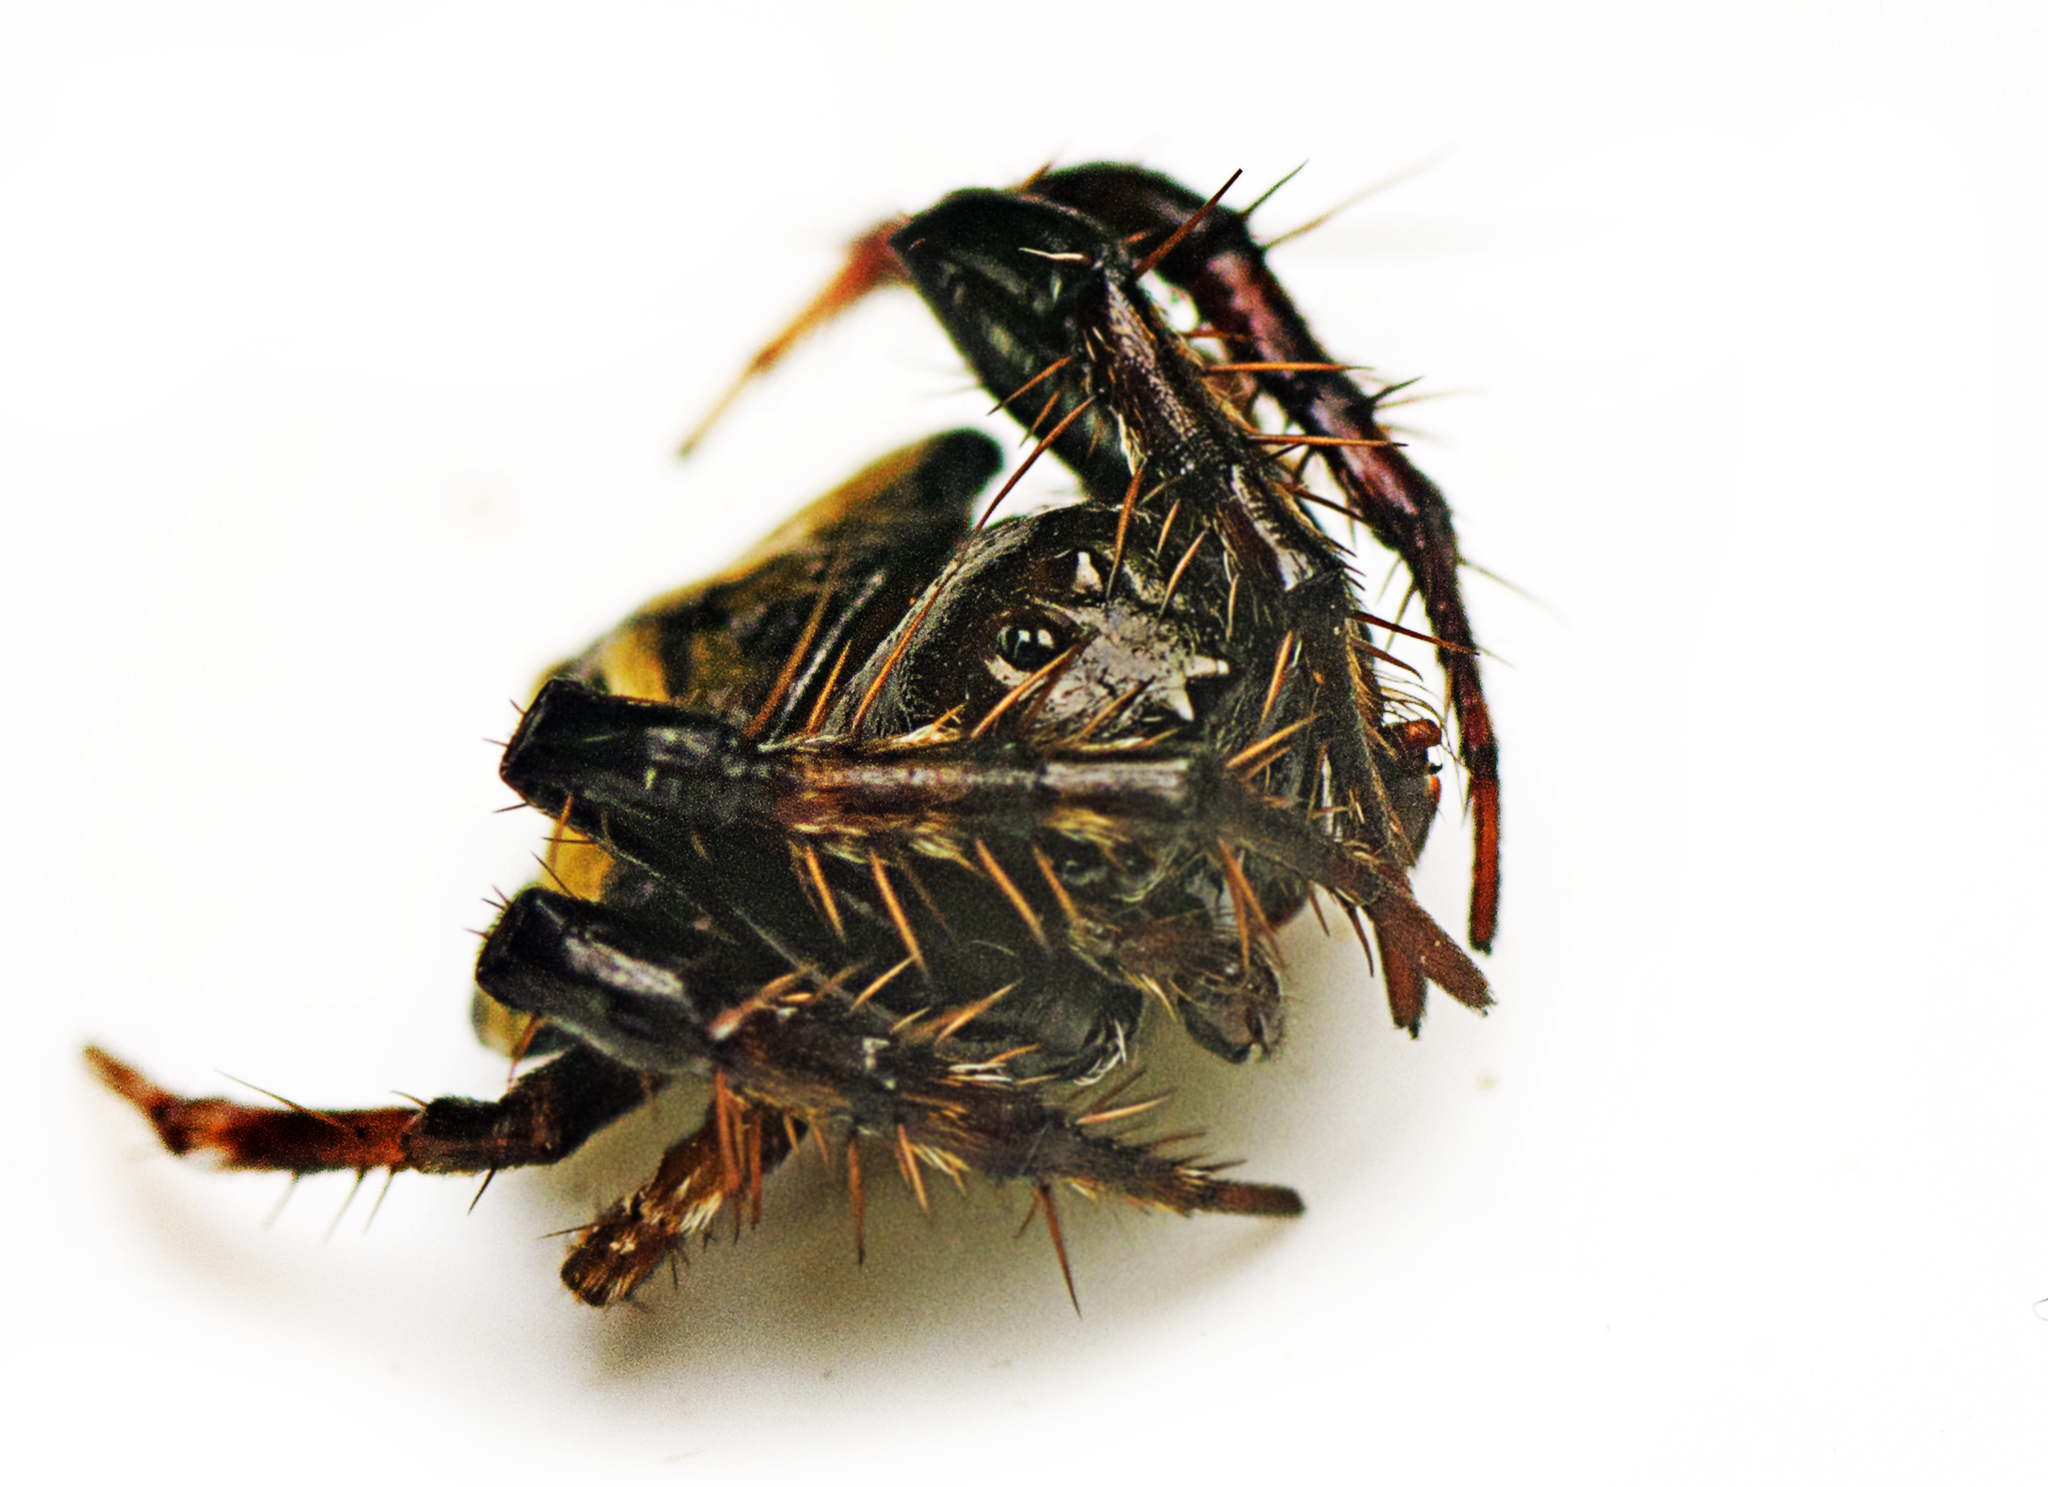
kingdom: Animalia
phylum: Arthropoda
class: Arachnida
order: Araneae
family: Arkyidae
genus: Arkys
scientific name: Arkys speechleyi
